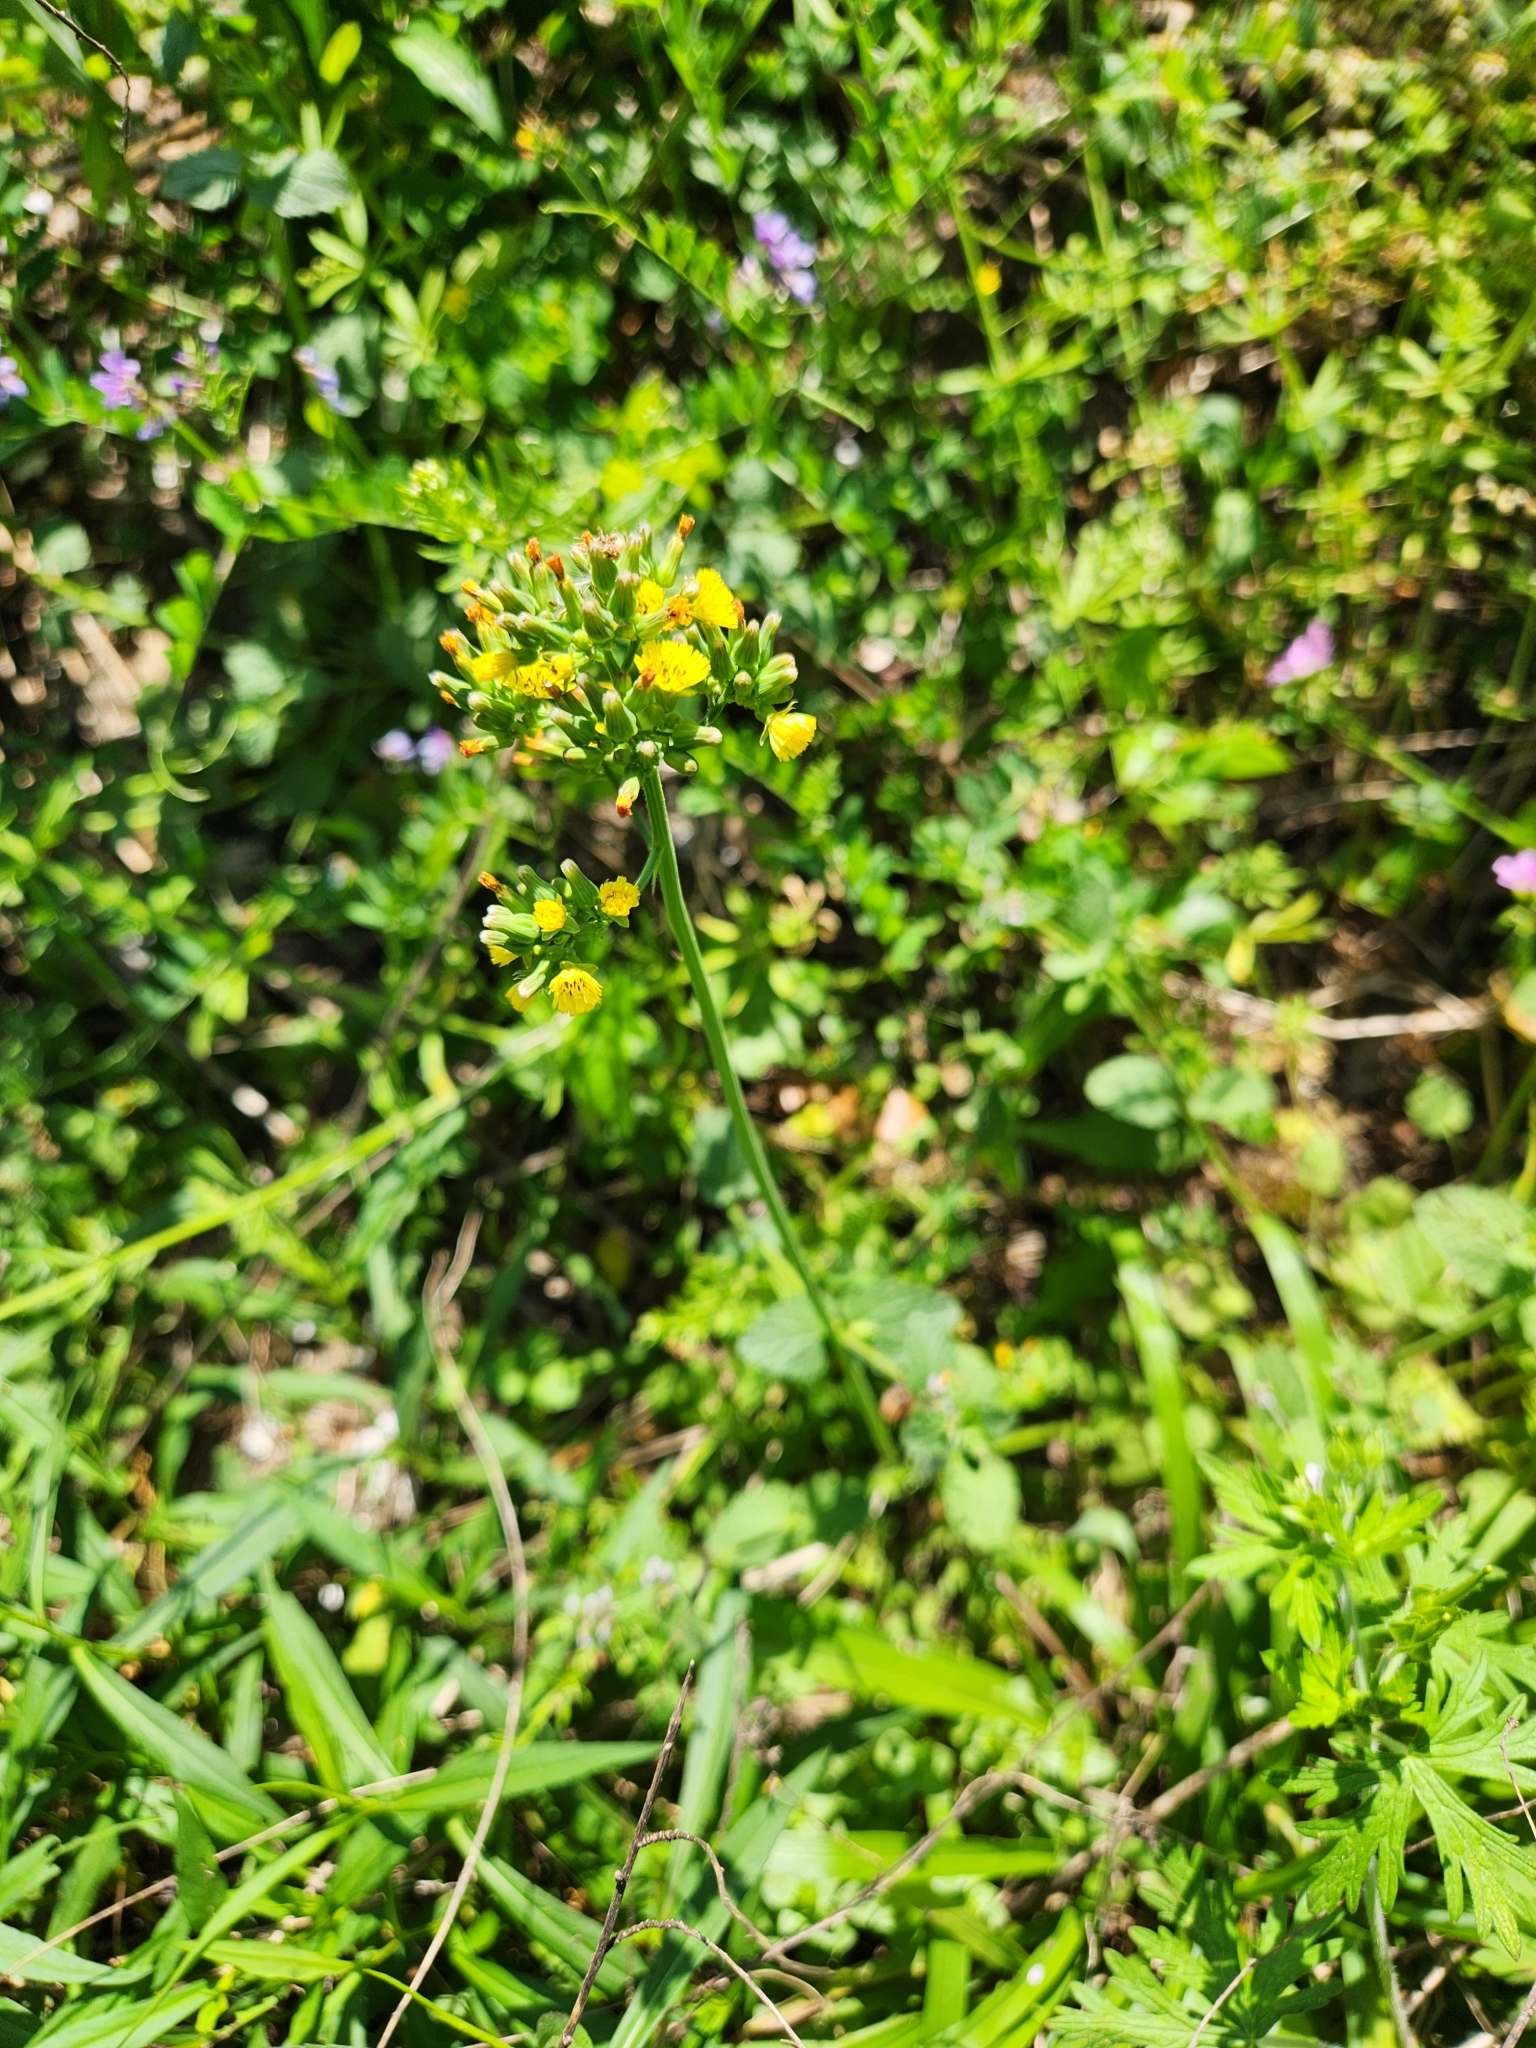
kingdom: Plantae
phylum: Tracheophyta
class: Magnoliopsida
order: Asterales
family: Asteraceae
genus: Youngia
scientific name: Youngia japonica
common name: Oriental false hawksbeard
